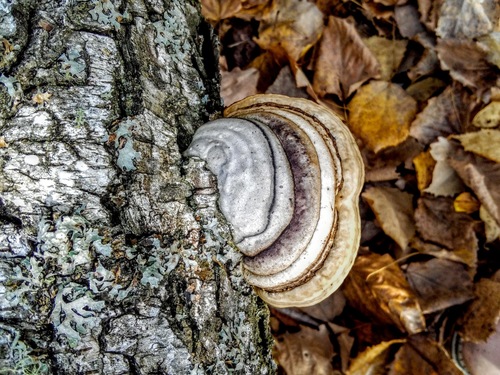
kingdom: Fungi
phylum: Basidiomycota
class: Agaricomycetes
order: Polyporales
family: Polyporaceae
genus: Fomes
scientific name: Fomes fomentarius
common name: Hoof fungus
